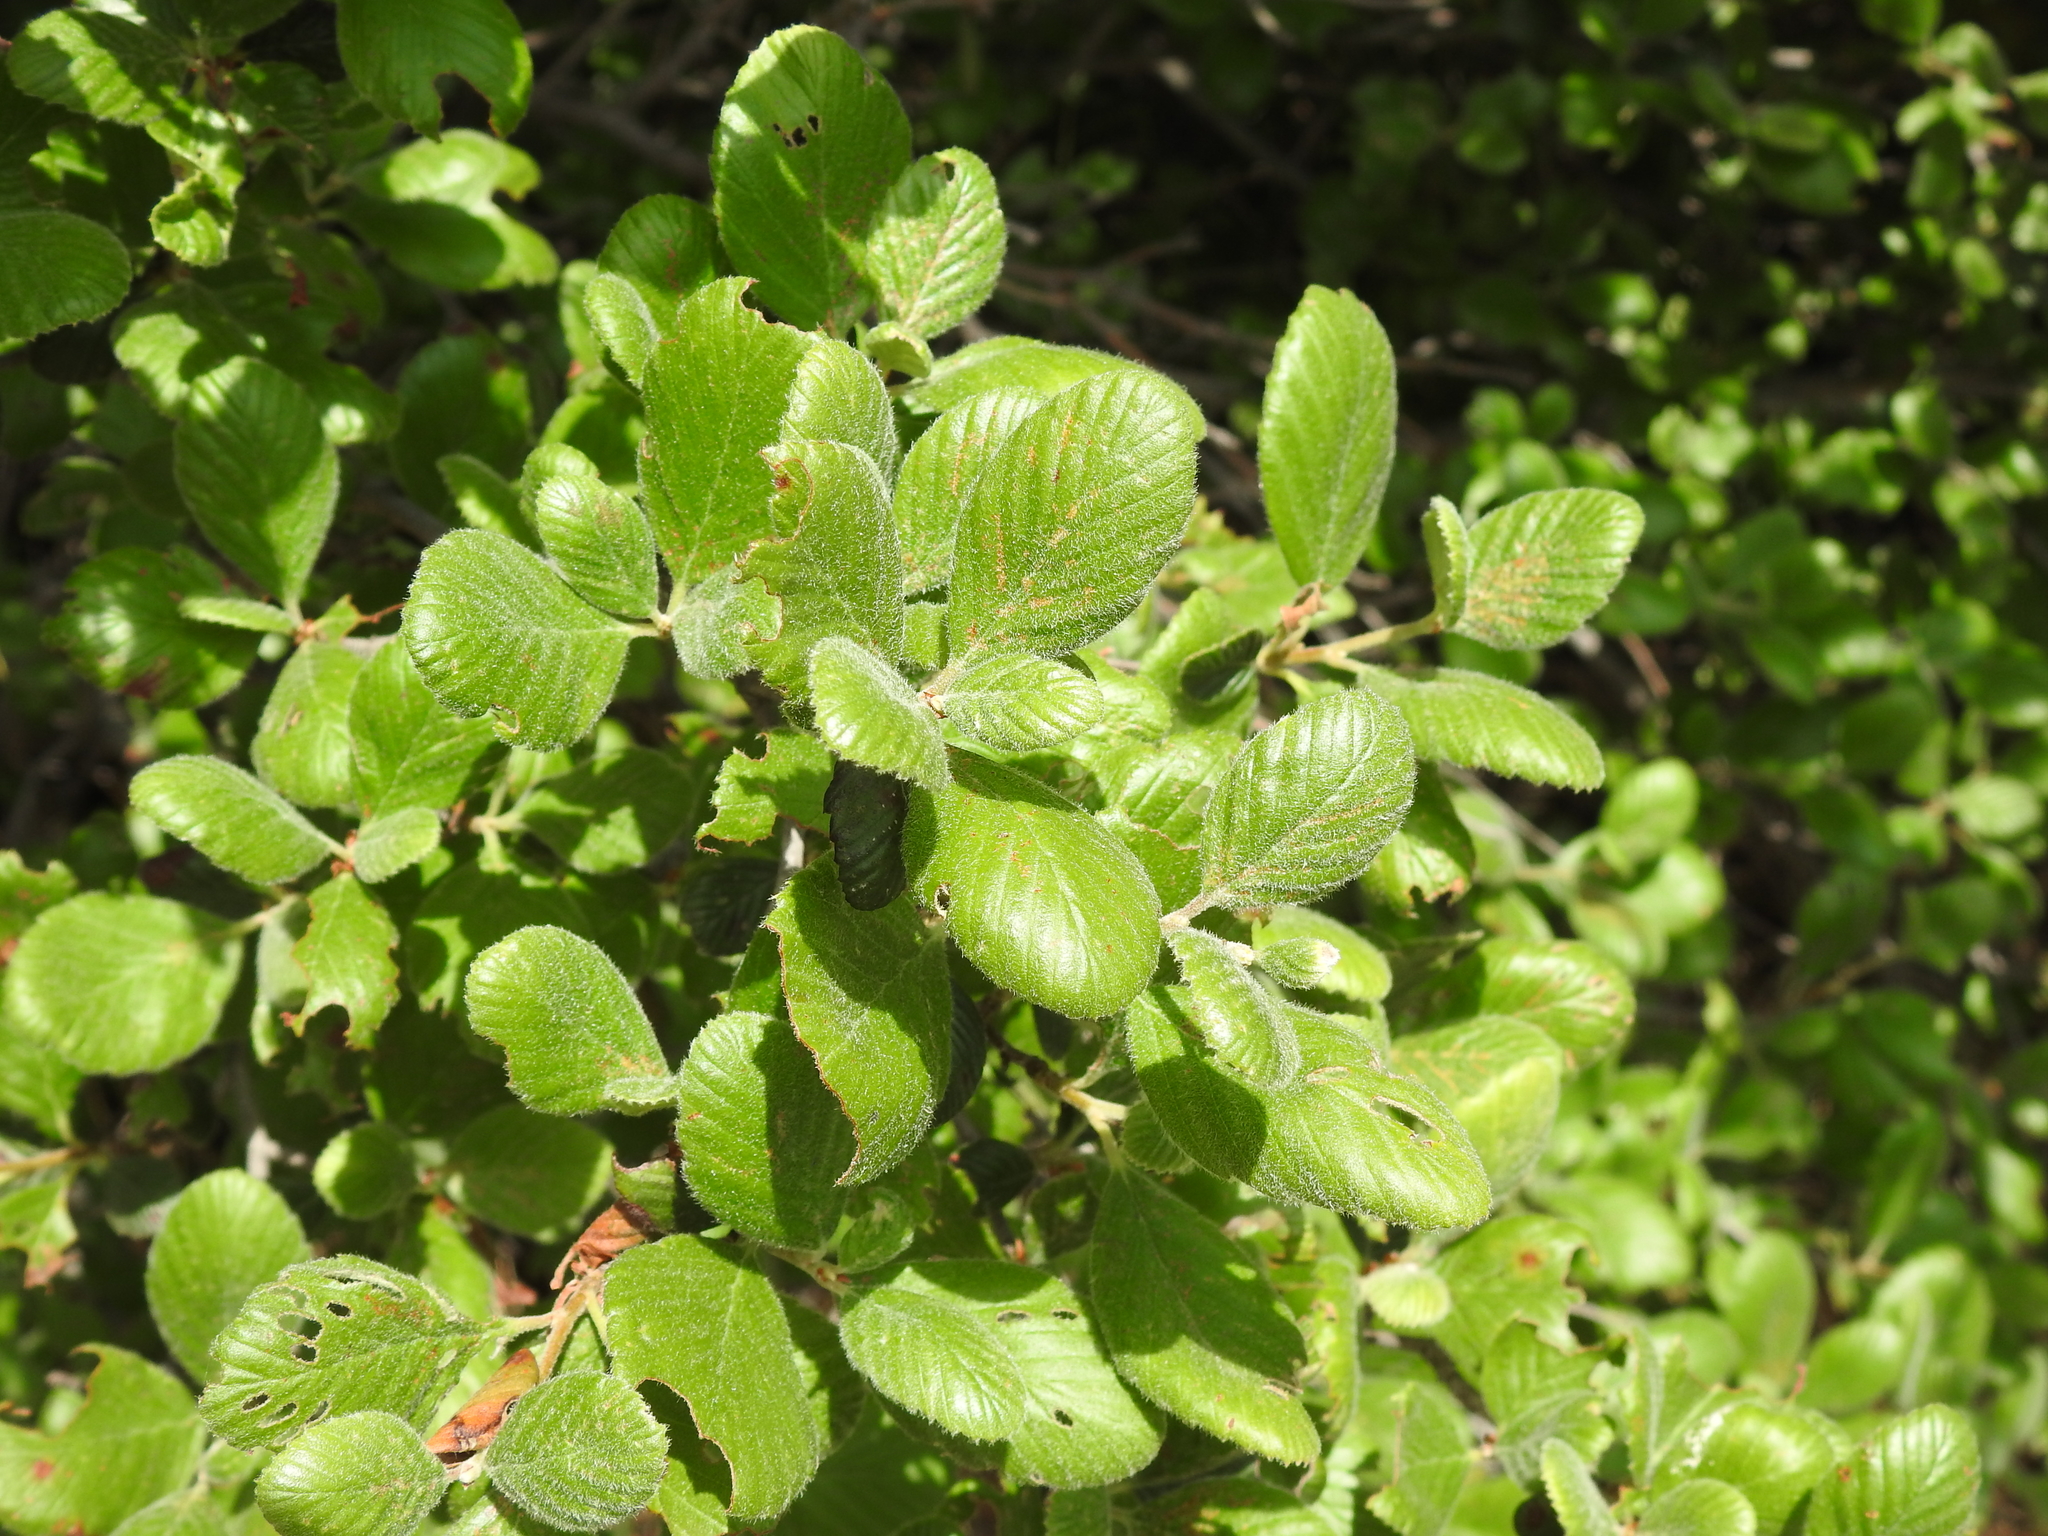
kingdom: Plantae
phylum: Tracheophyta
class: Magnoliopsida
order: Rosales
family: Rosaceae
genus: Cercocarpus
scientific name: Cercocarpus betuloides
